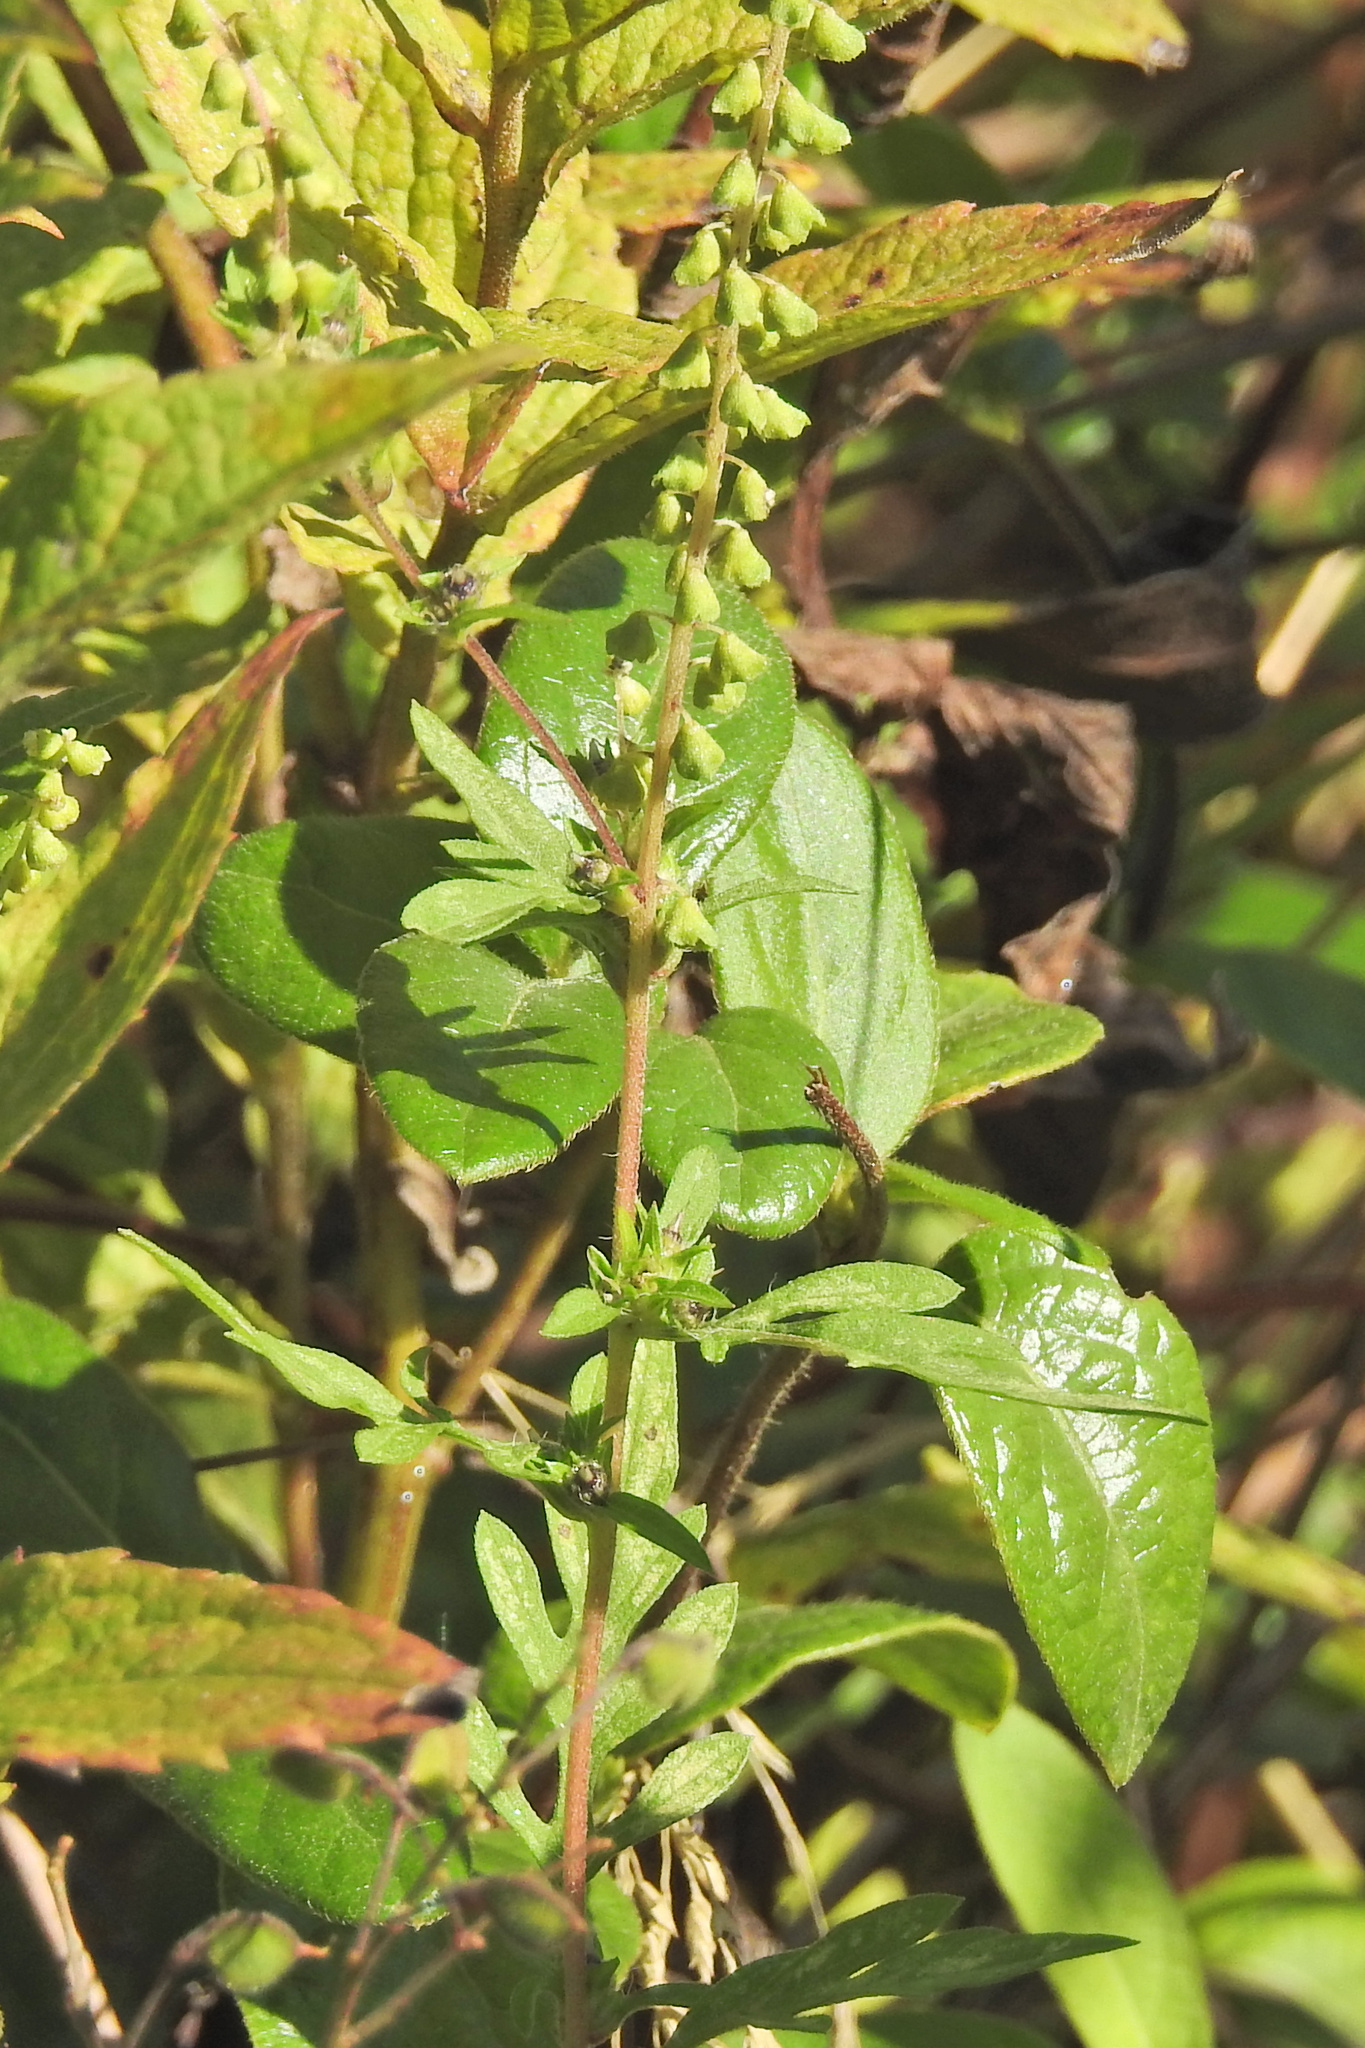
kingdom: Plantae
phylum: Tracheophyta
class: Magnoliopsida
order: Asterales
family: Asteraceae
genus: Ambrosia
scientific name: Ambrosia artemisiifolia
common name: Annual ragweed
